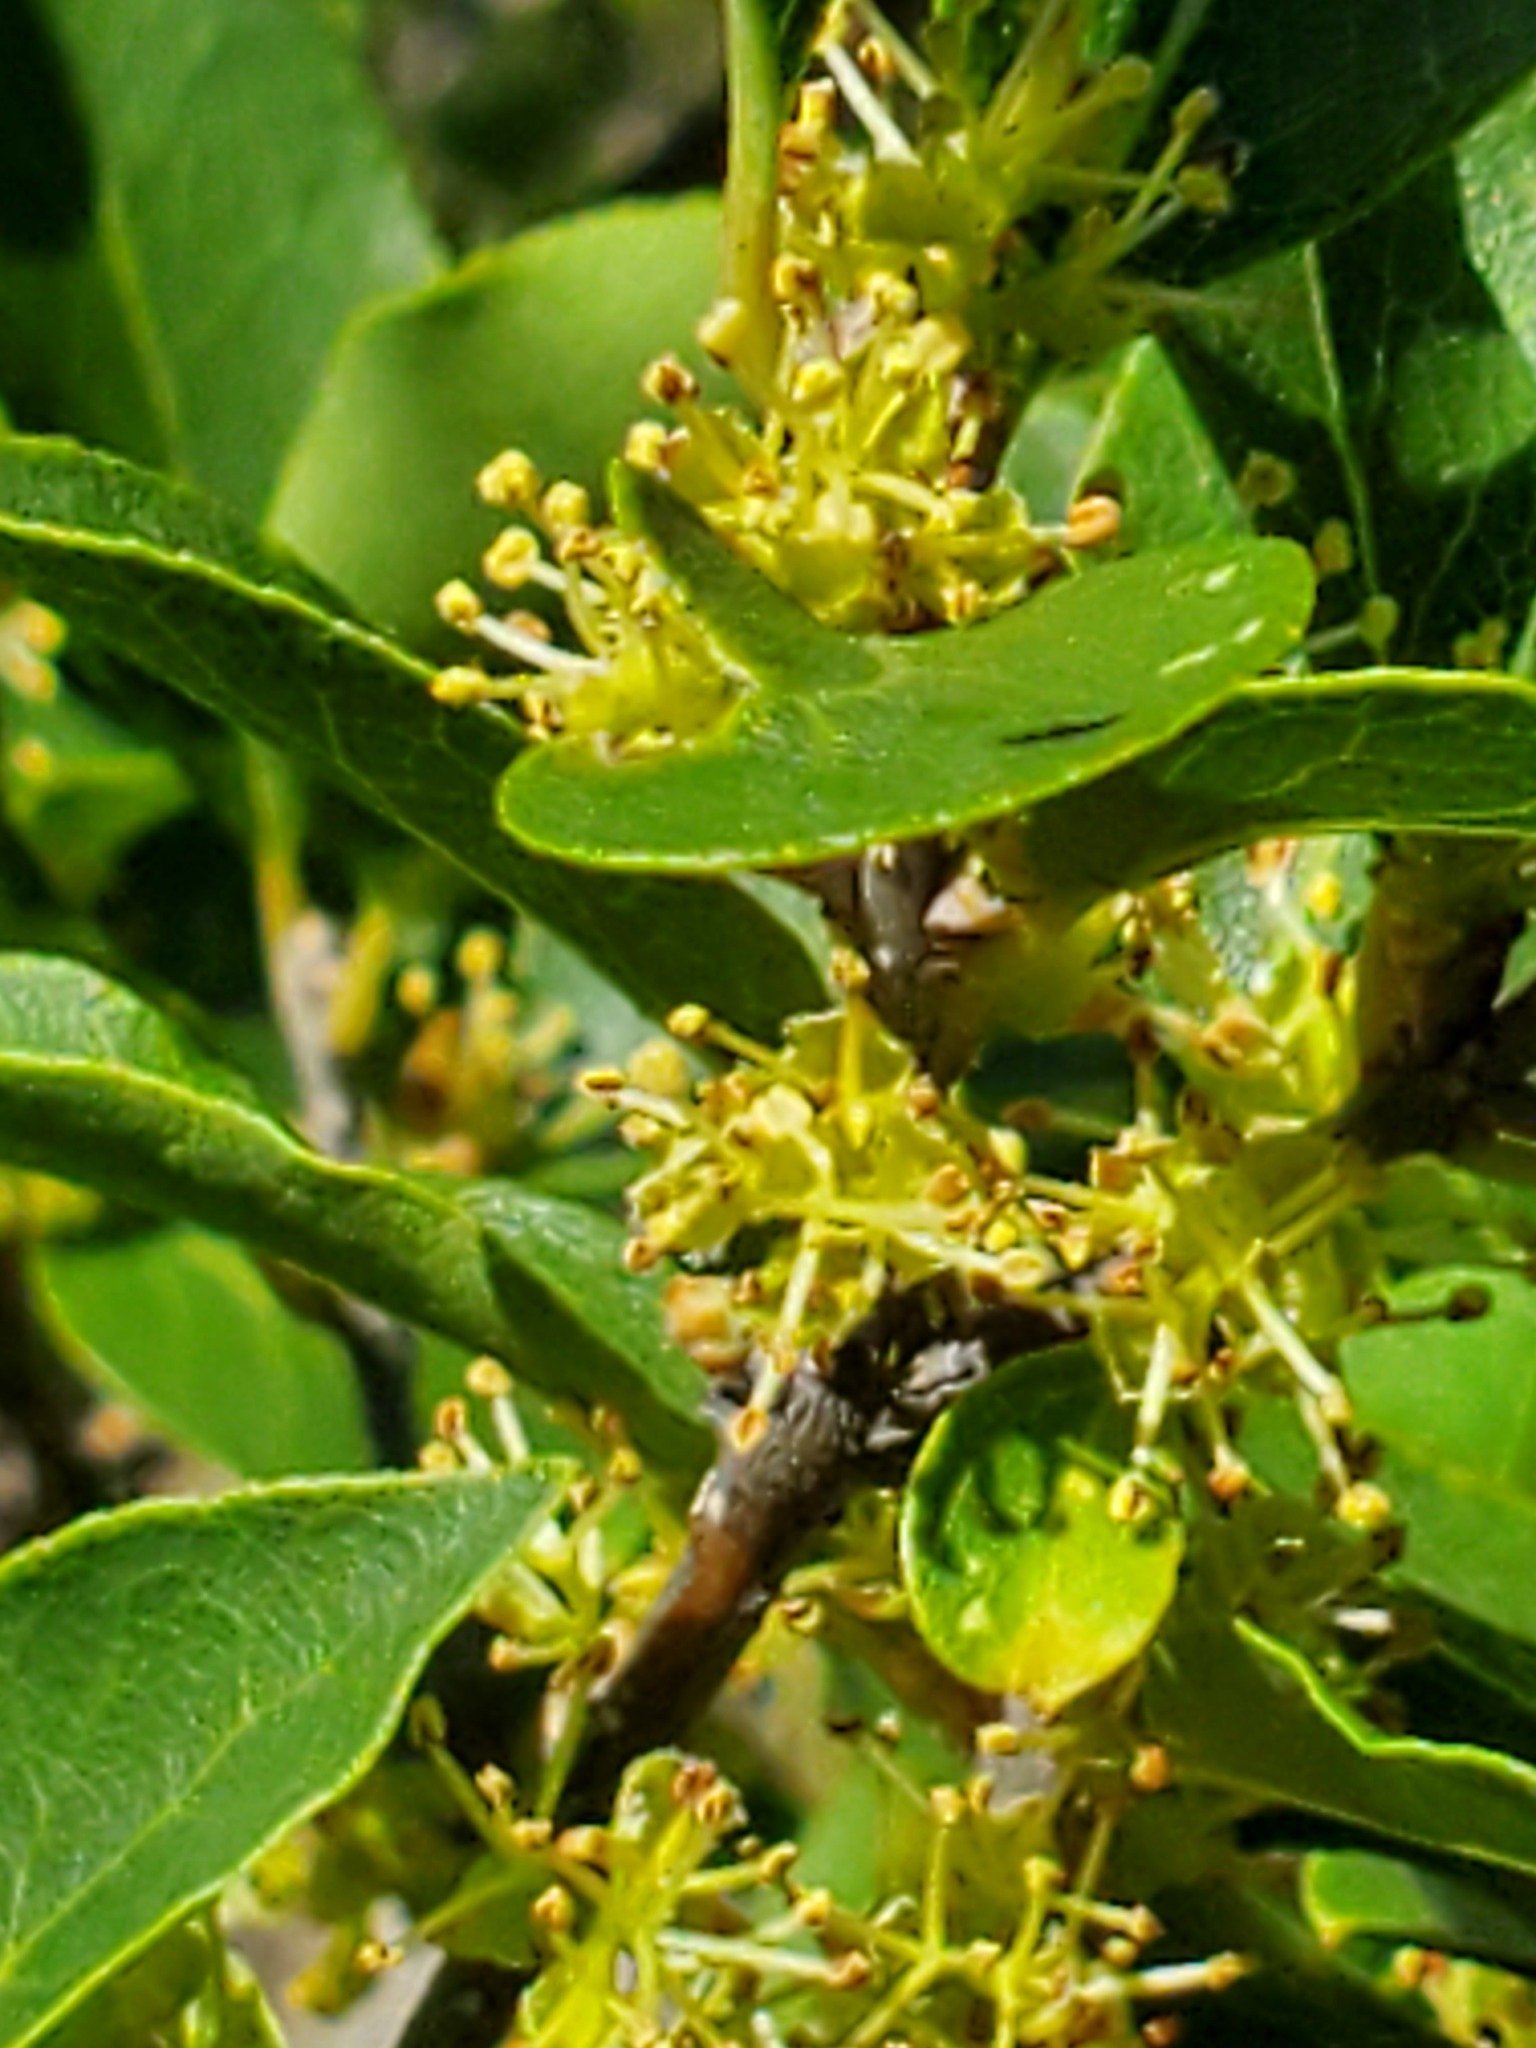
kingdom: Plantae
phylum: Tracheophyta
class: Magnoliopsida
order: Lamiales
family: Oleaceae
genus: Forestiera
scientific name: Forestiera reticulata
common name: Netleaf swamp-privet
